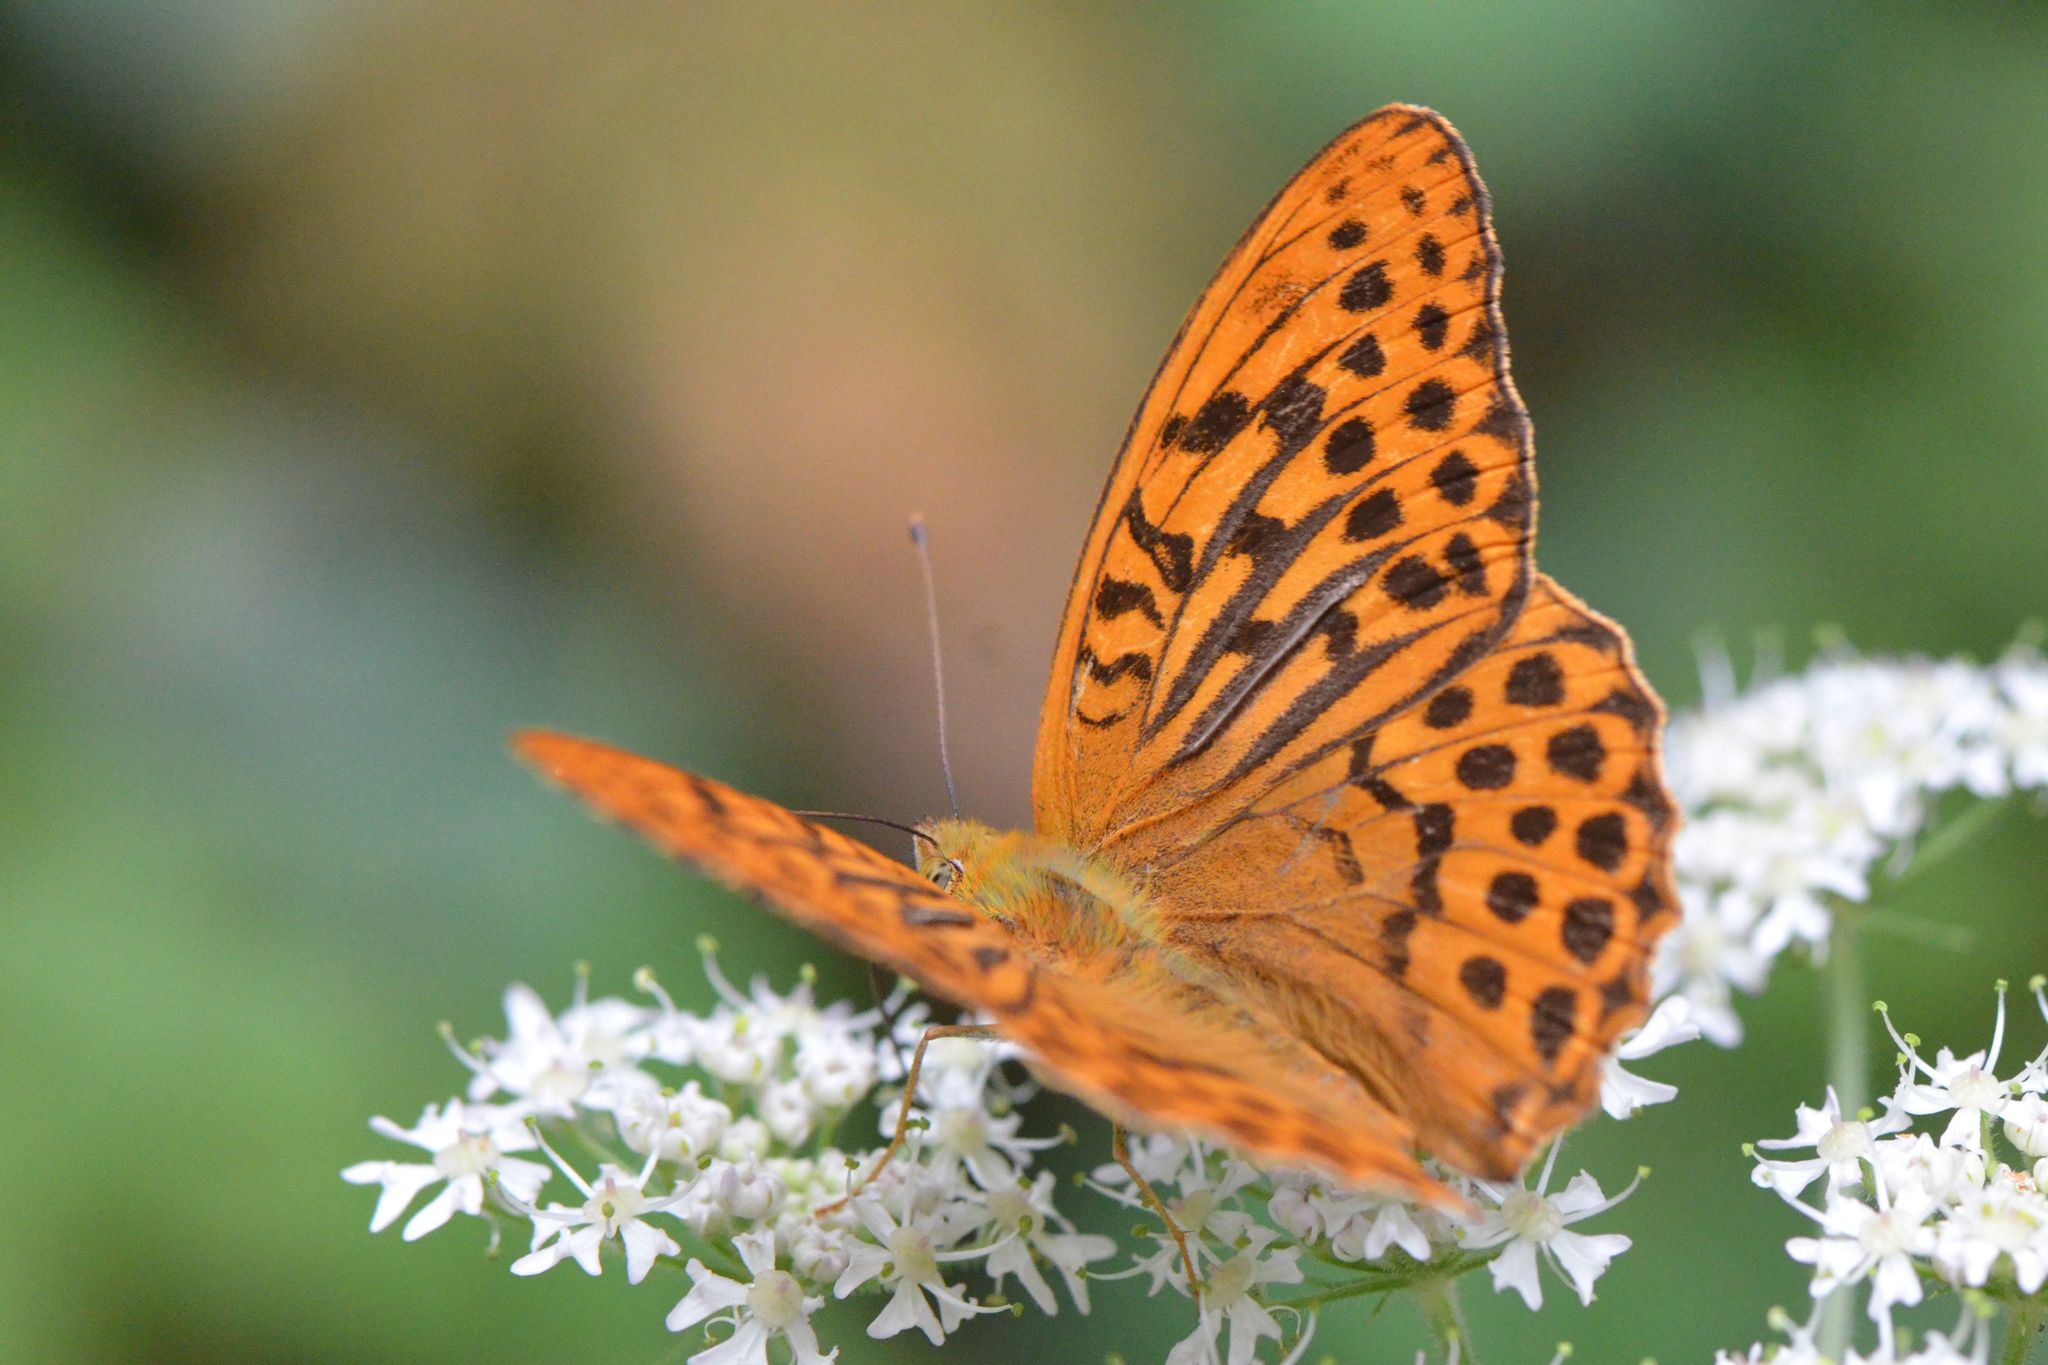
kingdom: Animalia
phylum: Arthropoda
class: Insecta
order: Lepidoptera
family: Nymphalidae
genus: Argynnis
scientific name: Argynnis paphia
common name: Silver-washed fritillary
